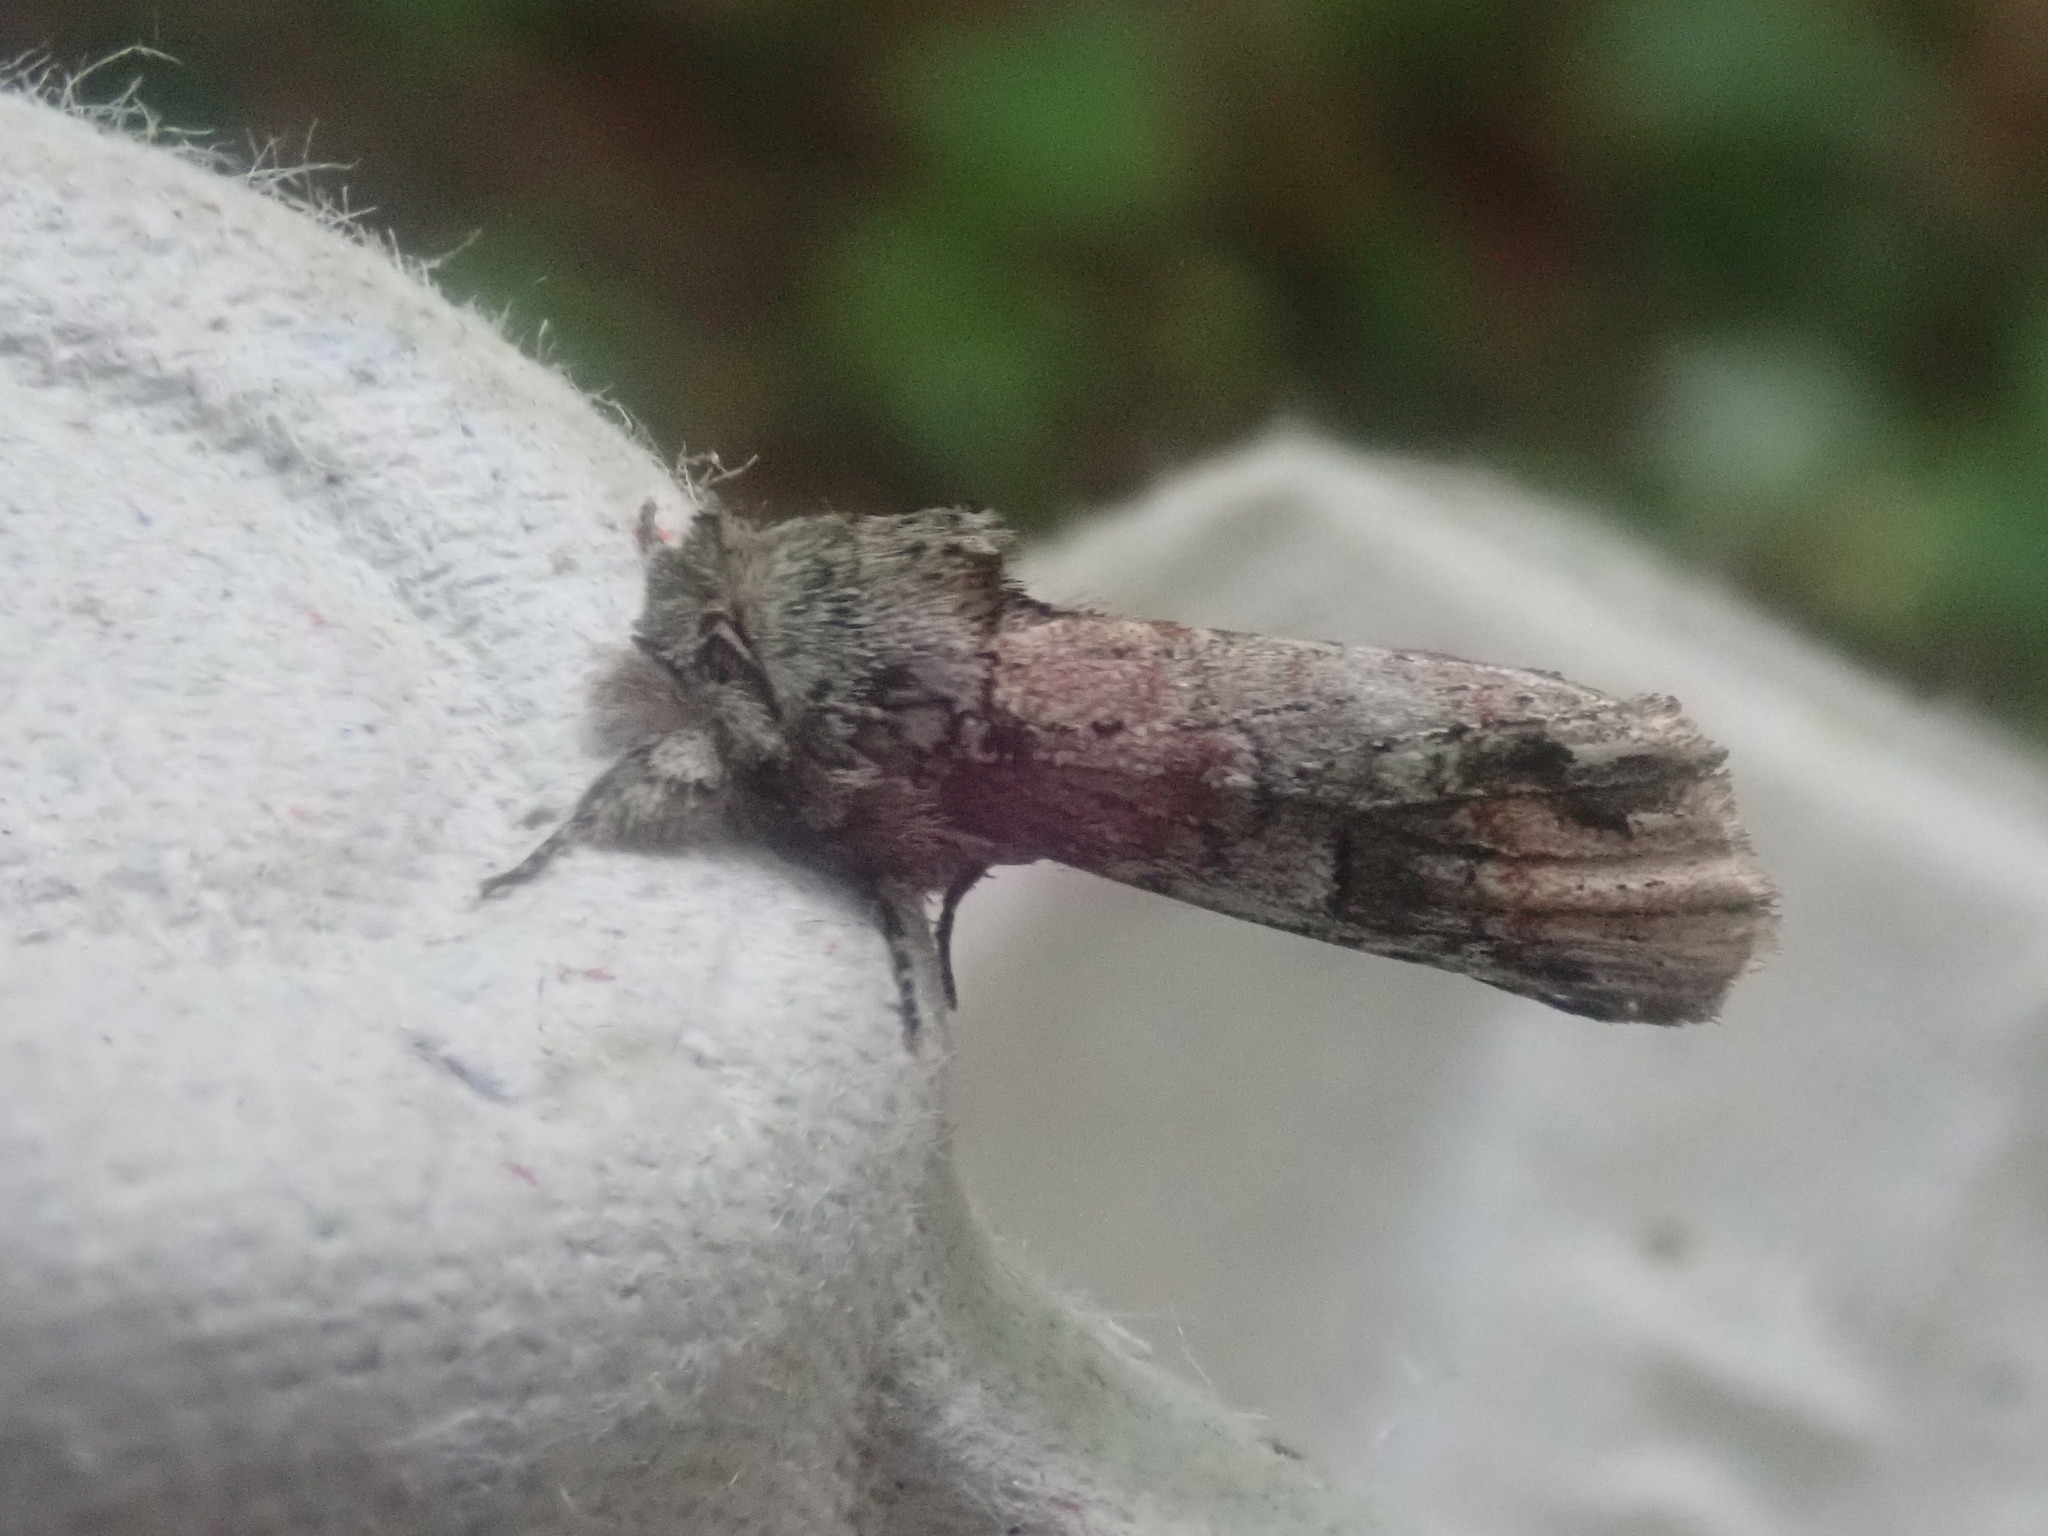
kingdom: Animalia
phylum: Arthropoda
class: Insecta
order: Lepidoptera
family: Notodontidae
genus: Schizura
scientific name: Schizura
